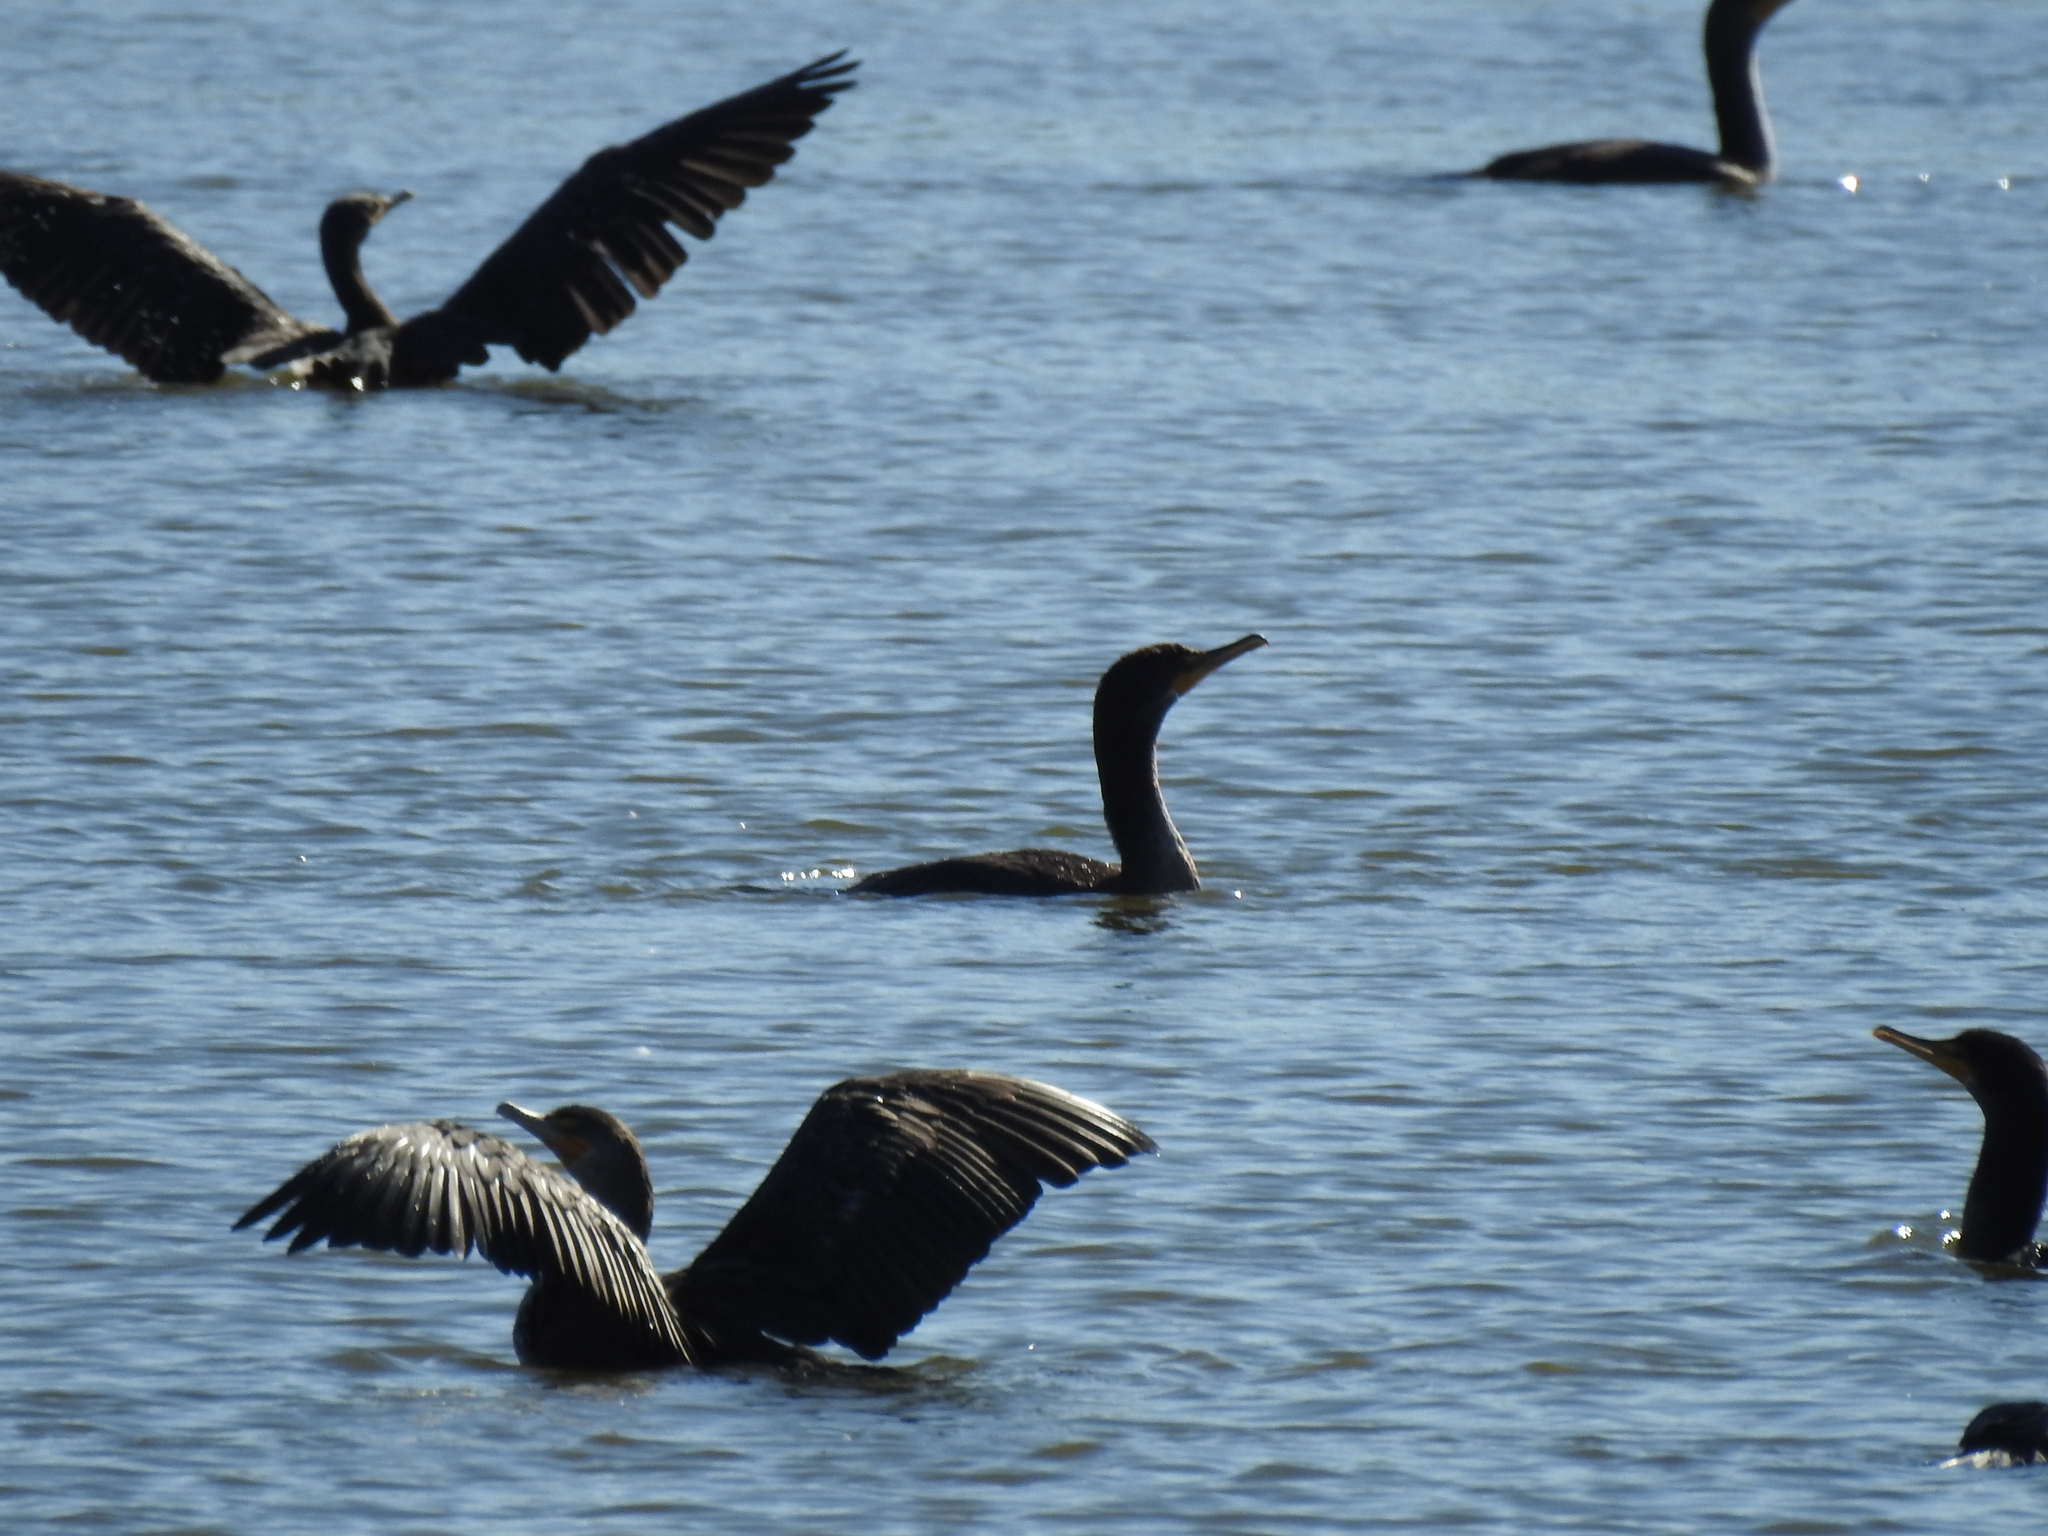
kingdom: Animalia
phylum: Chordata
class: Aves
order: Suliformes
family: Phalacrocoracidae
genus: Phalacrocorax
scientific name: Phalacrocorax auritus
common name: Double-crested cormorant
